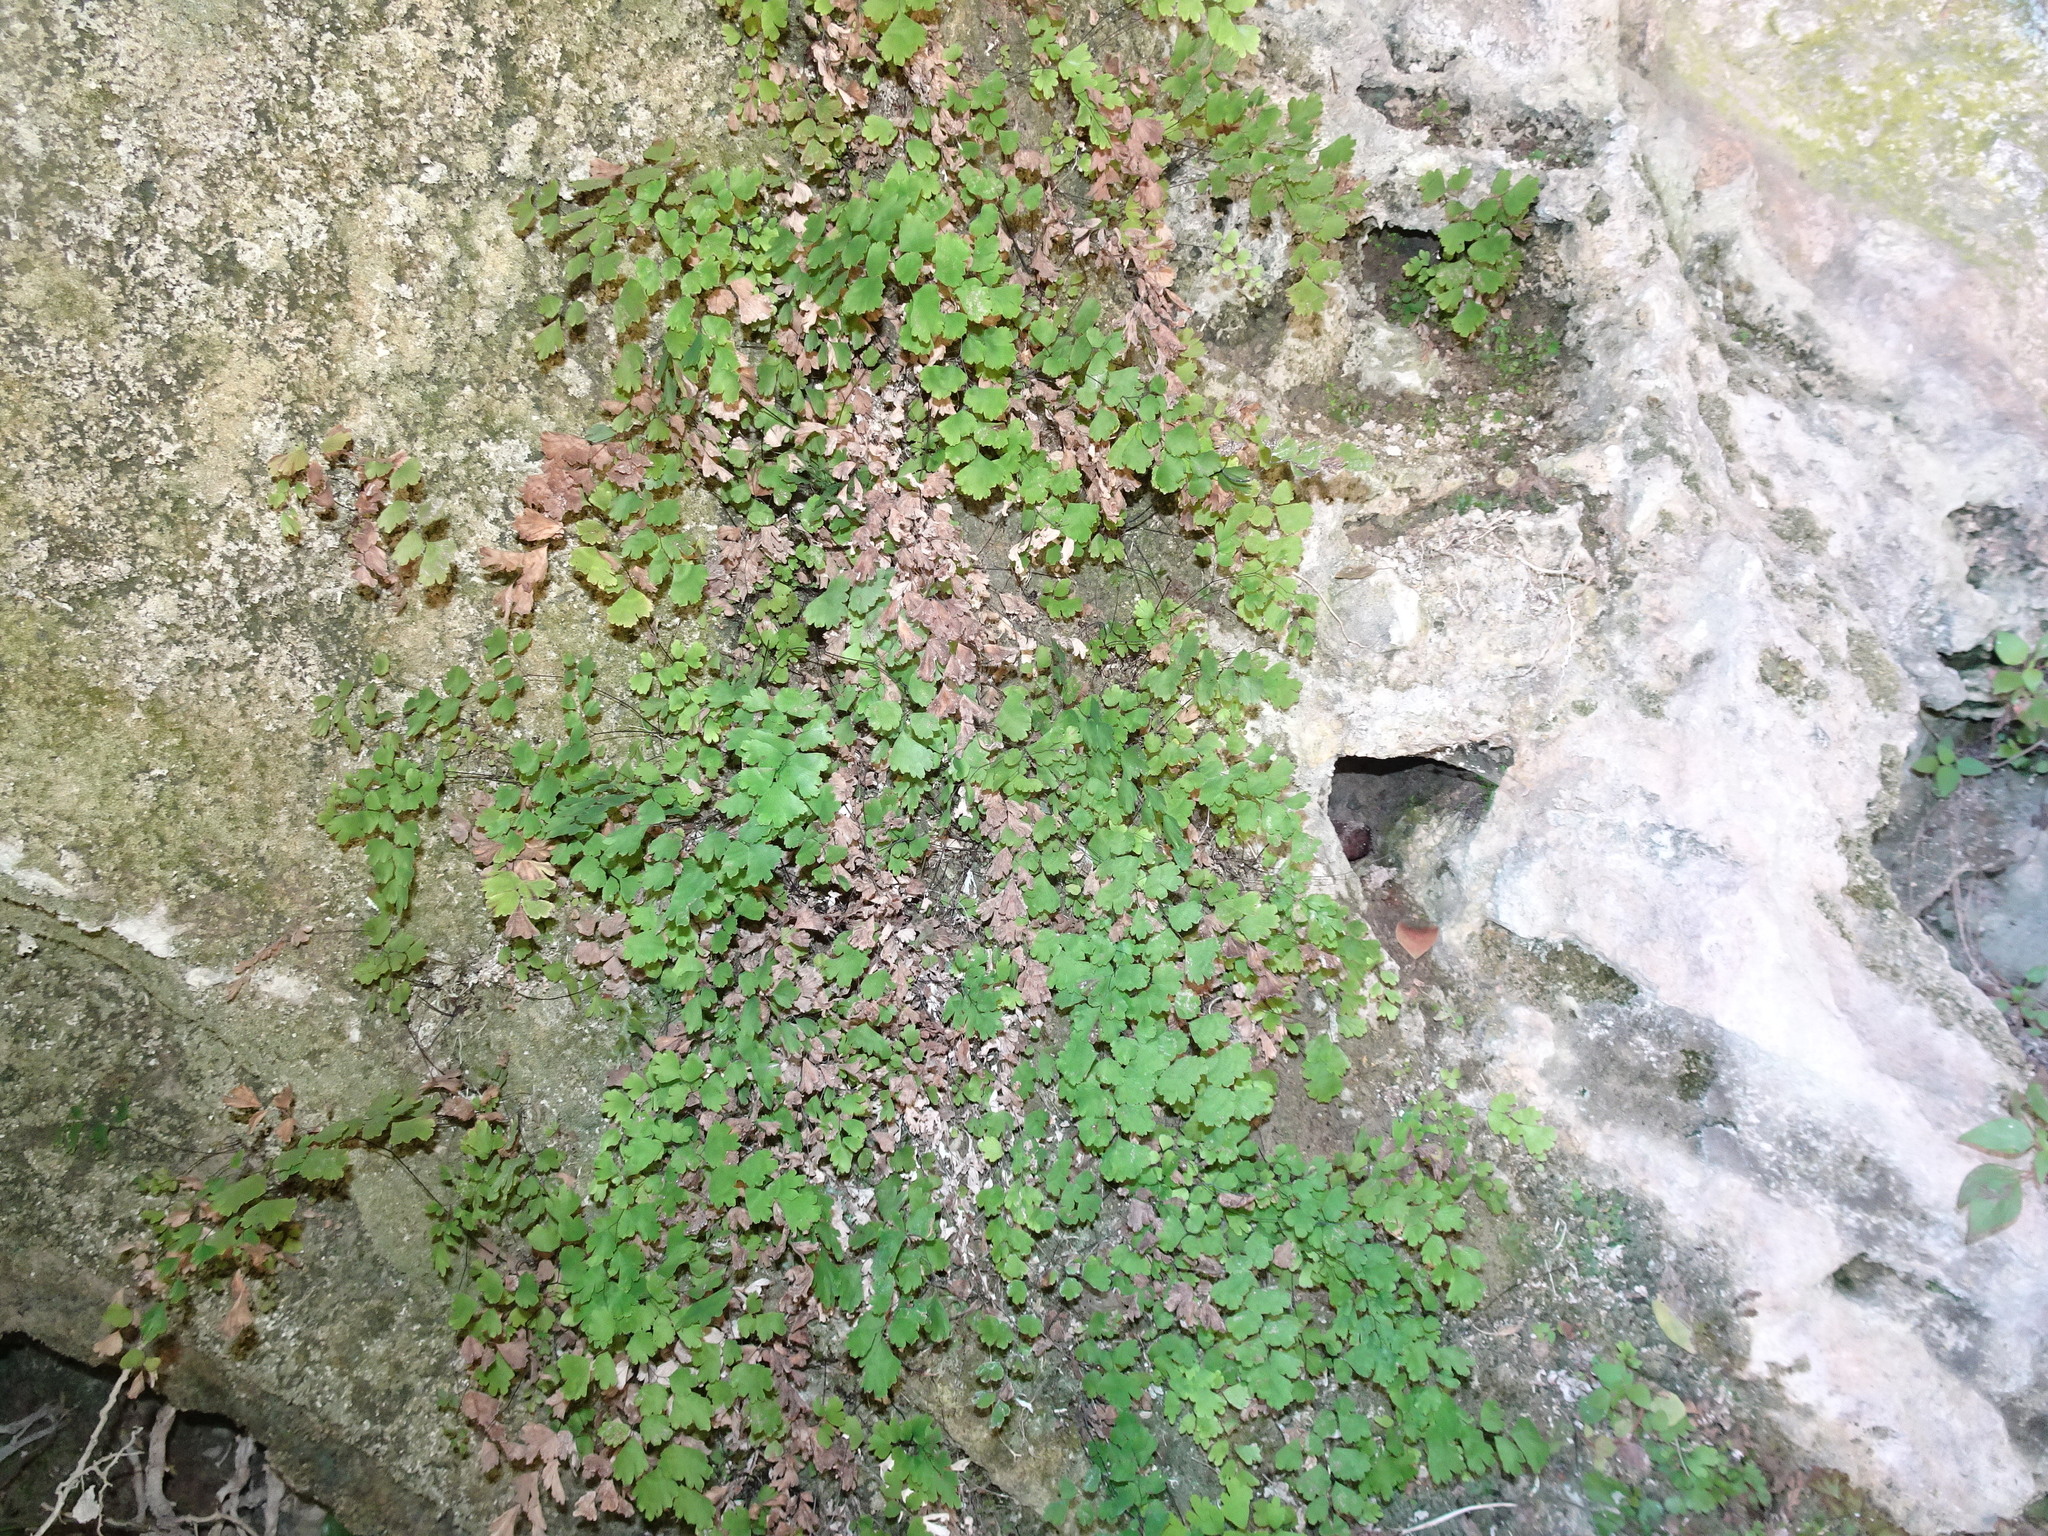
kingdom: Plantae
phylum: Tracheophyta
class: Polypodiopsida
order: Polypodiales
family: Pteridaceae
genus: Adiantum
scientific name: Adiantum capillus-veneris
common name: Maidenhair fern
